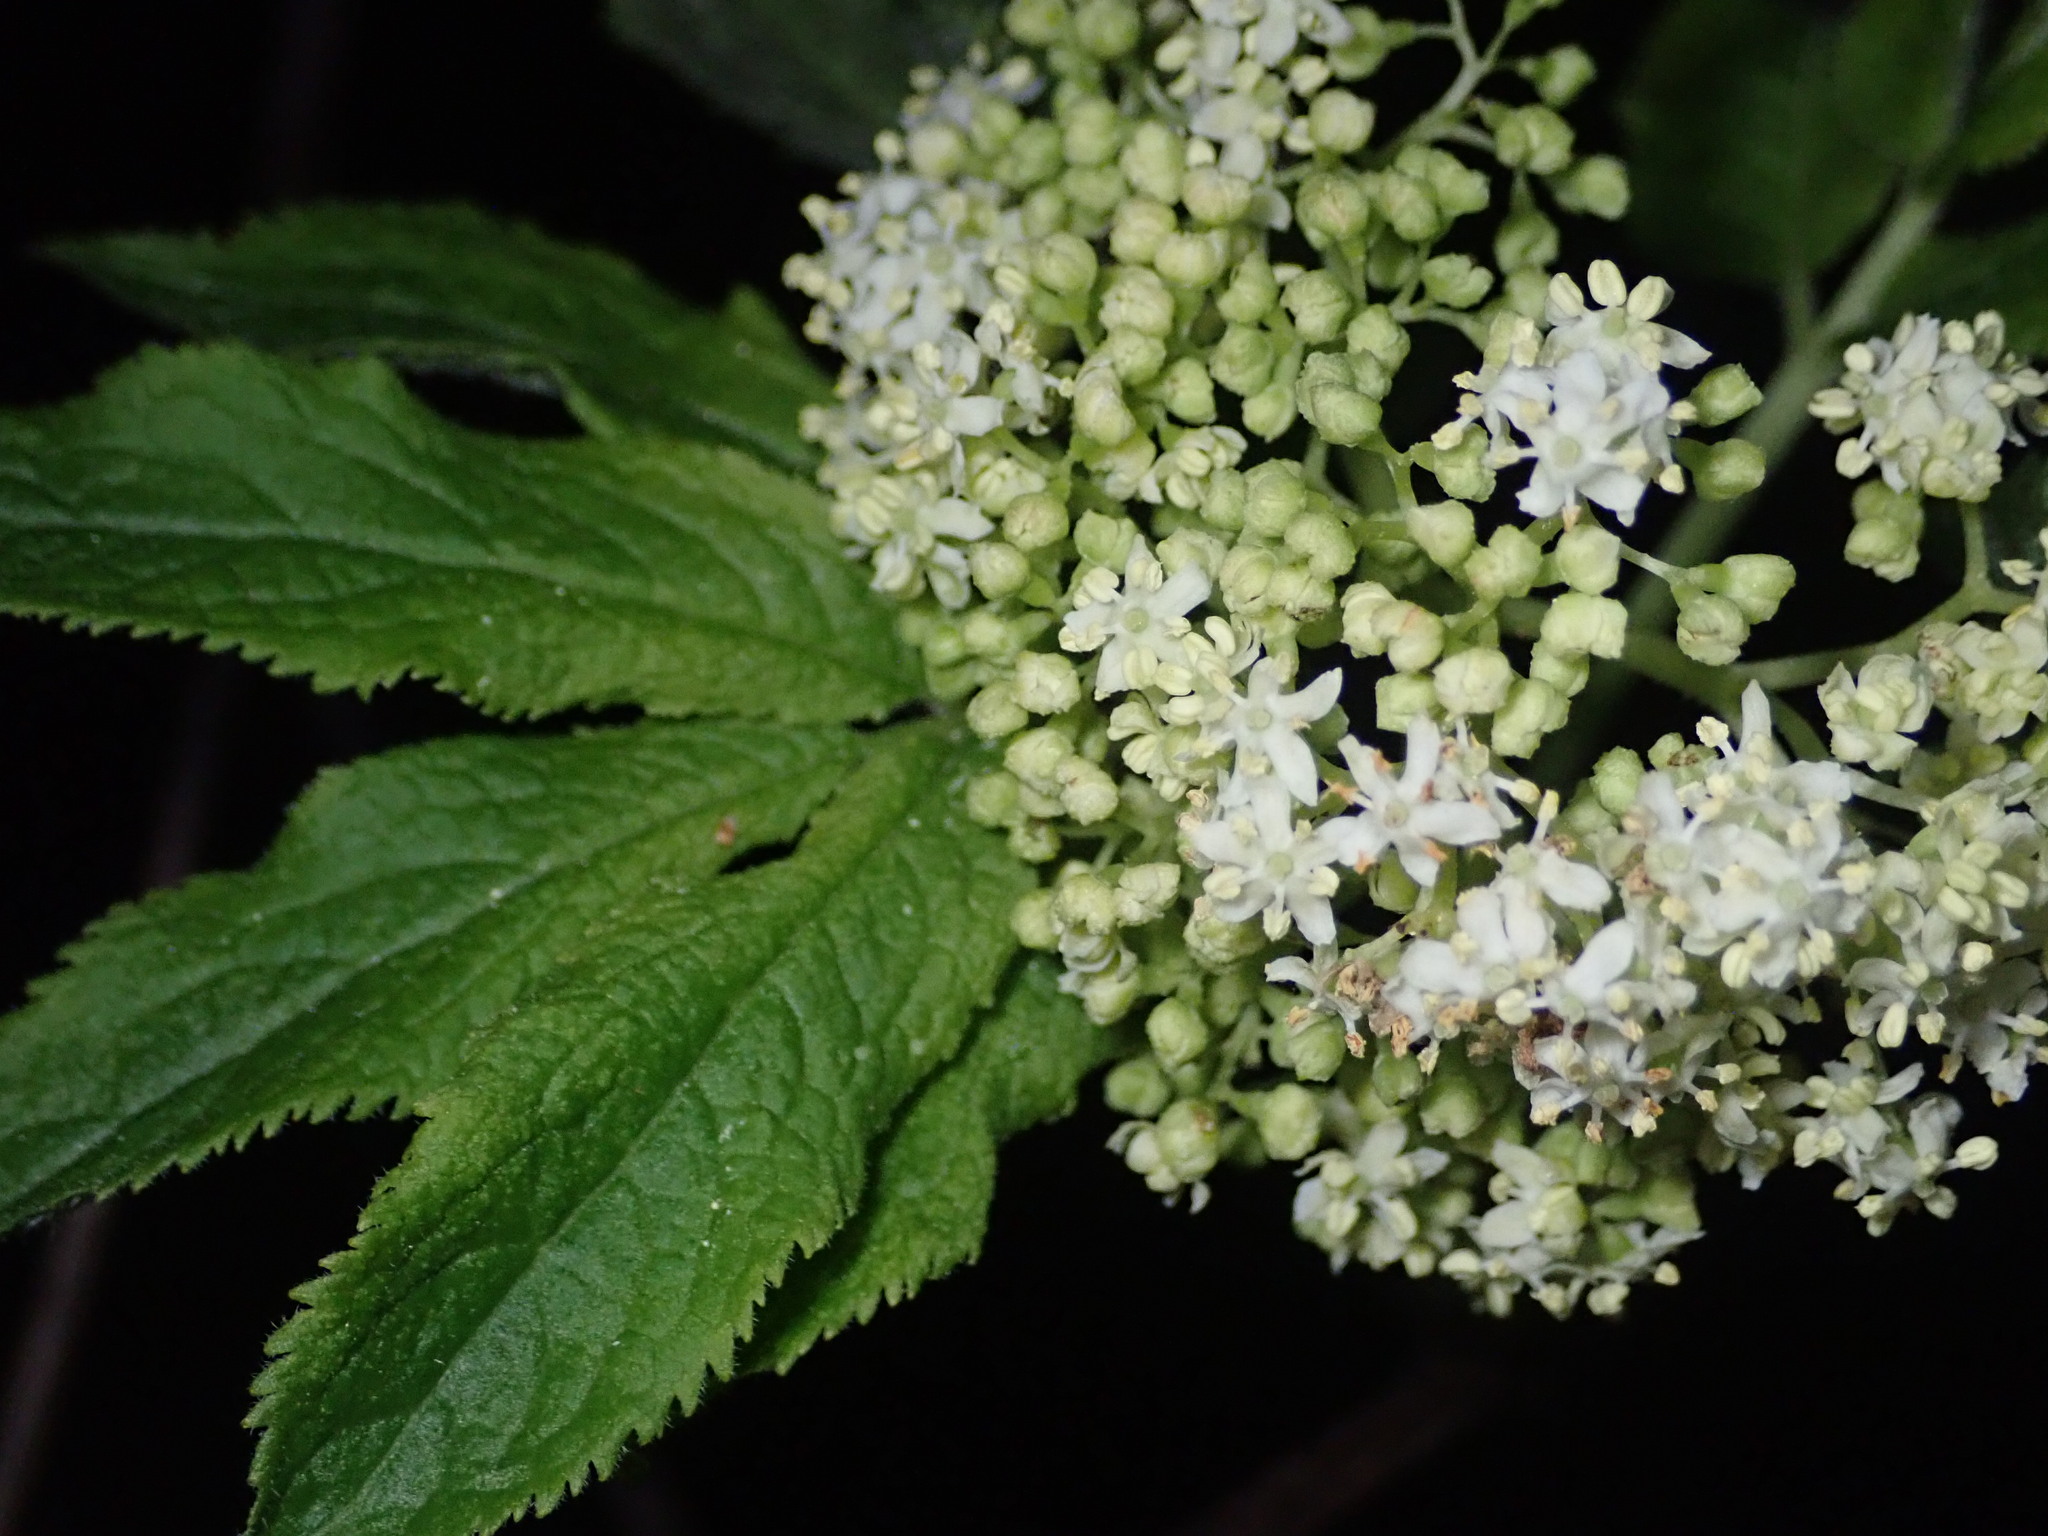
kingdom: Plantae
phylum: Tracheophyta
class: Magnoliopsida
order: Dipsacales
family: Viburnaceae
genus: Sambucus
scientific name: Sambucus racemosa
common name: Red-berried elder
